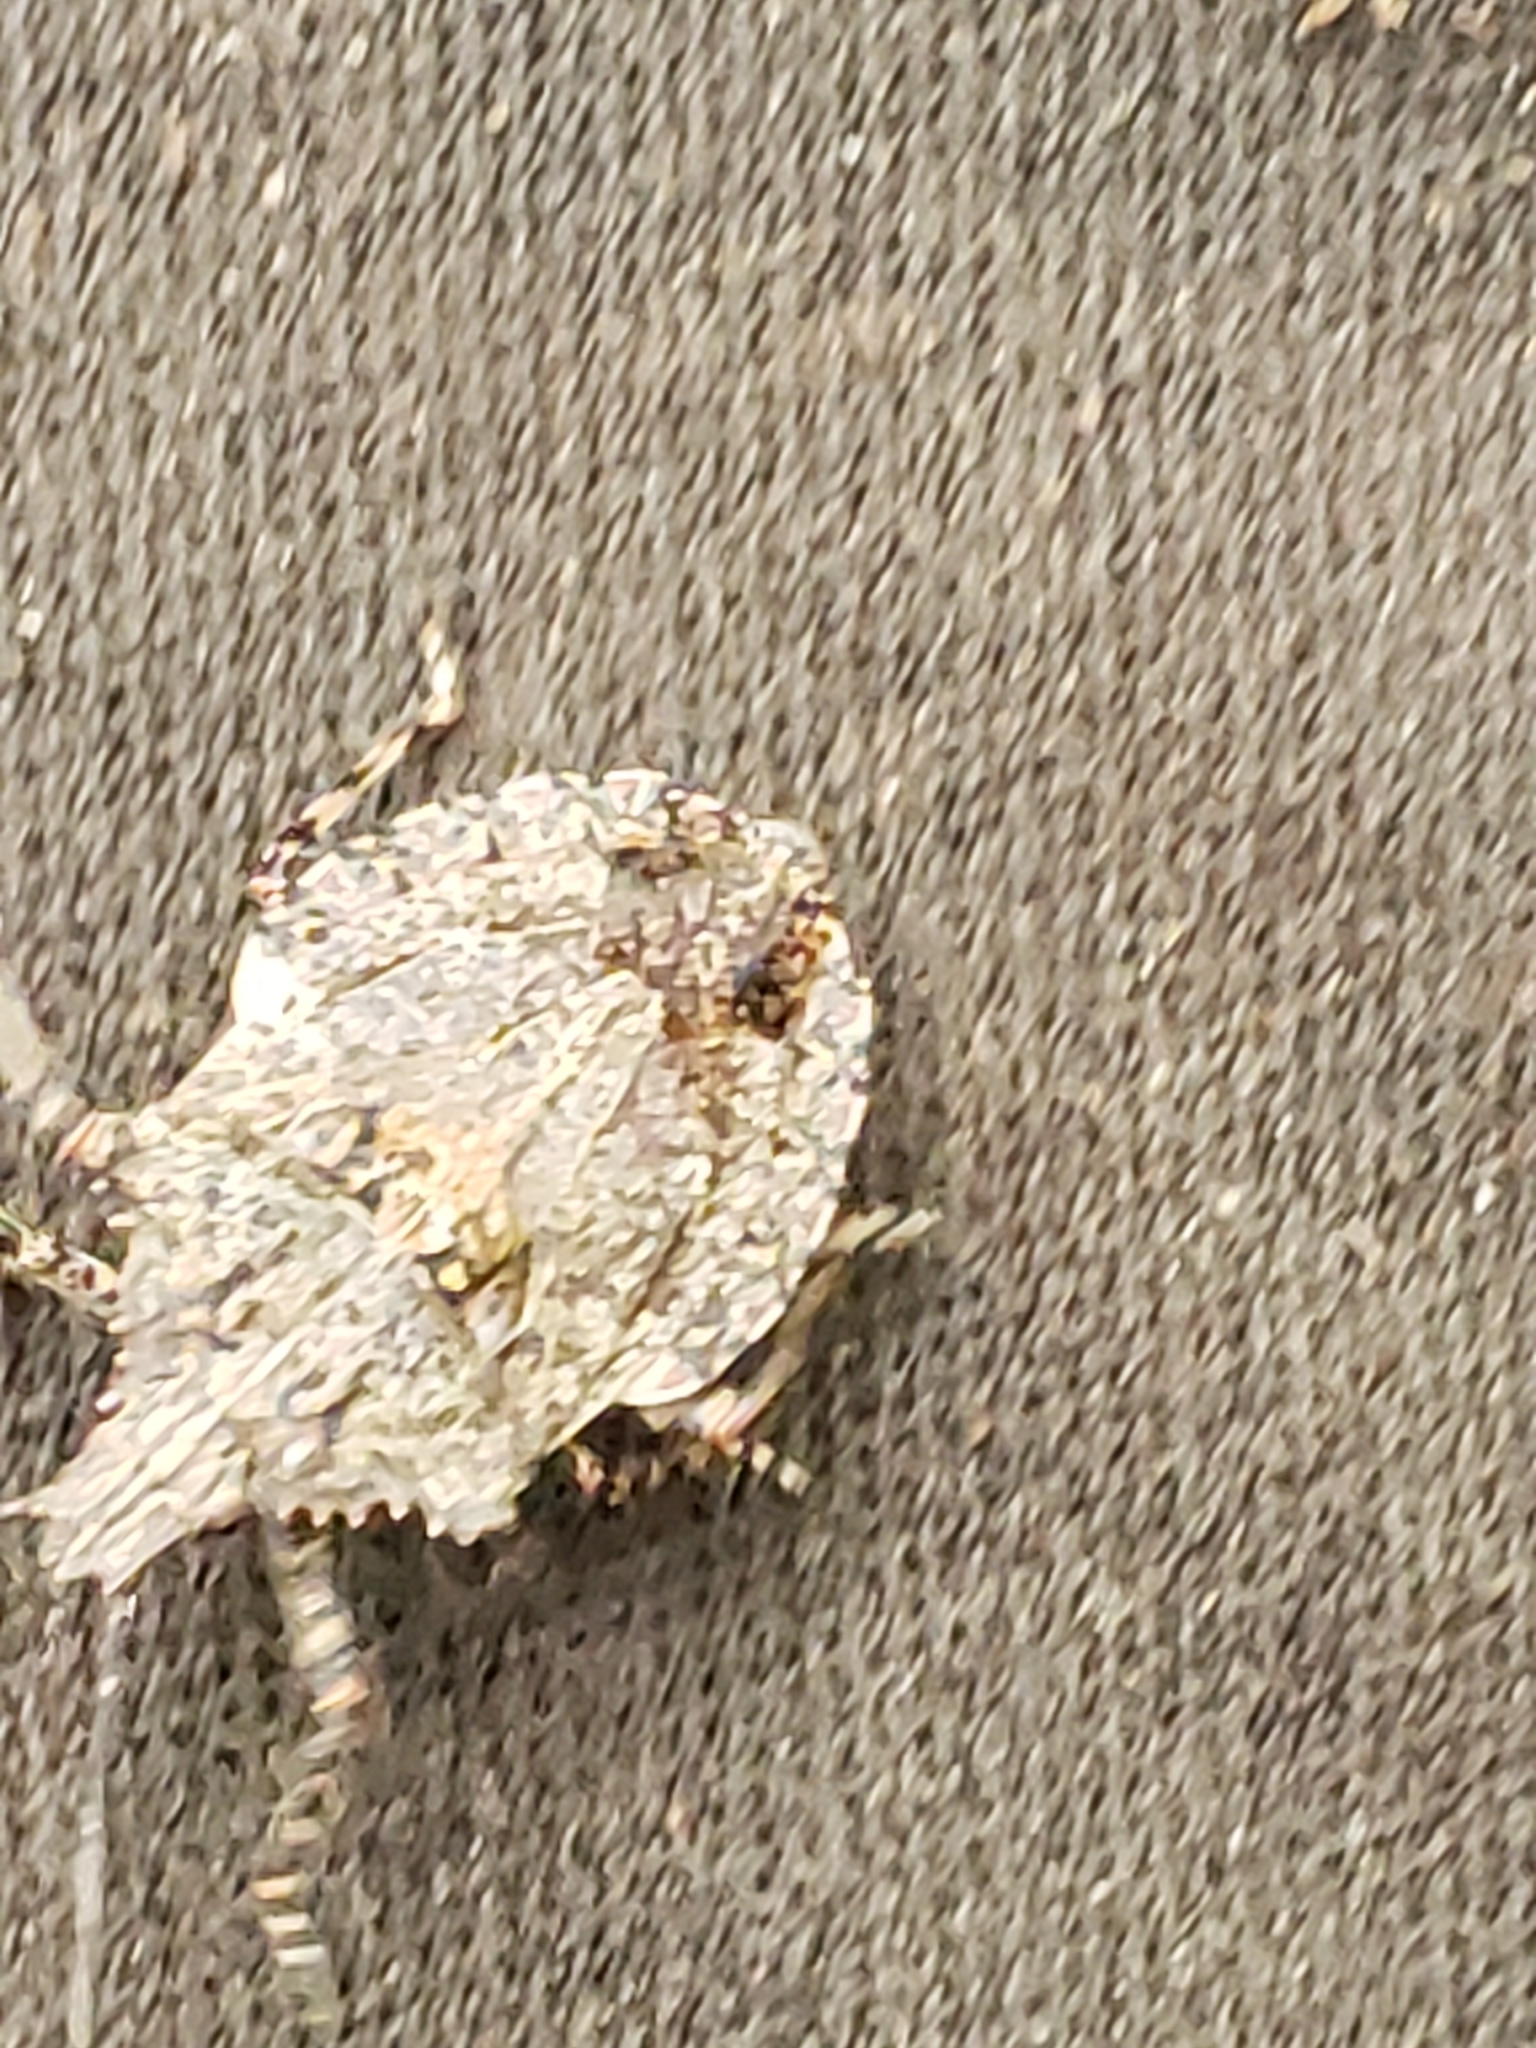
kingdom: Animalia
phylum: Arthropoda
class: Insecta
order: Hemiptera
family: Pentatomidae
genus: Brochymena
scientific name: Brochymena arborea
